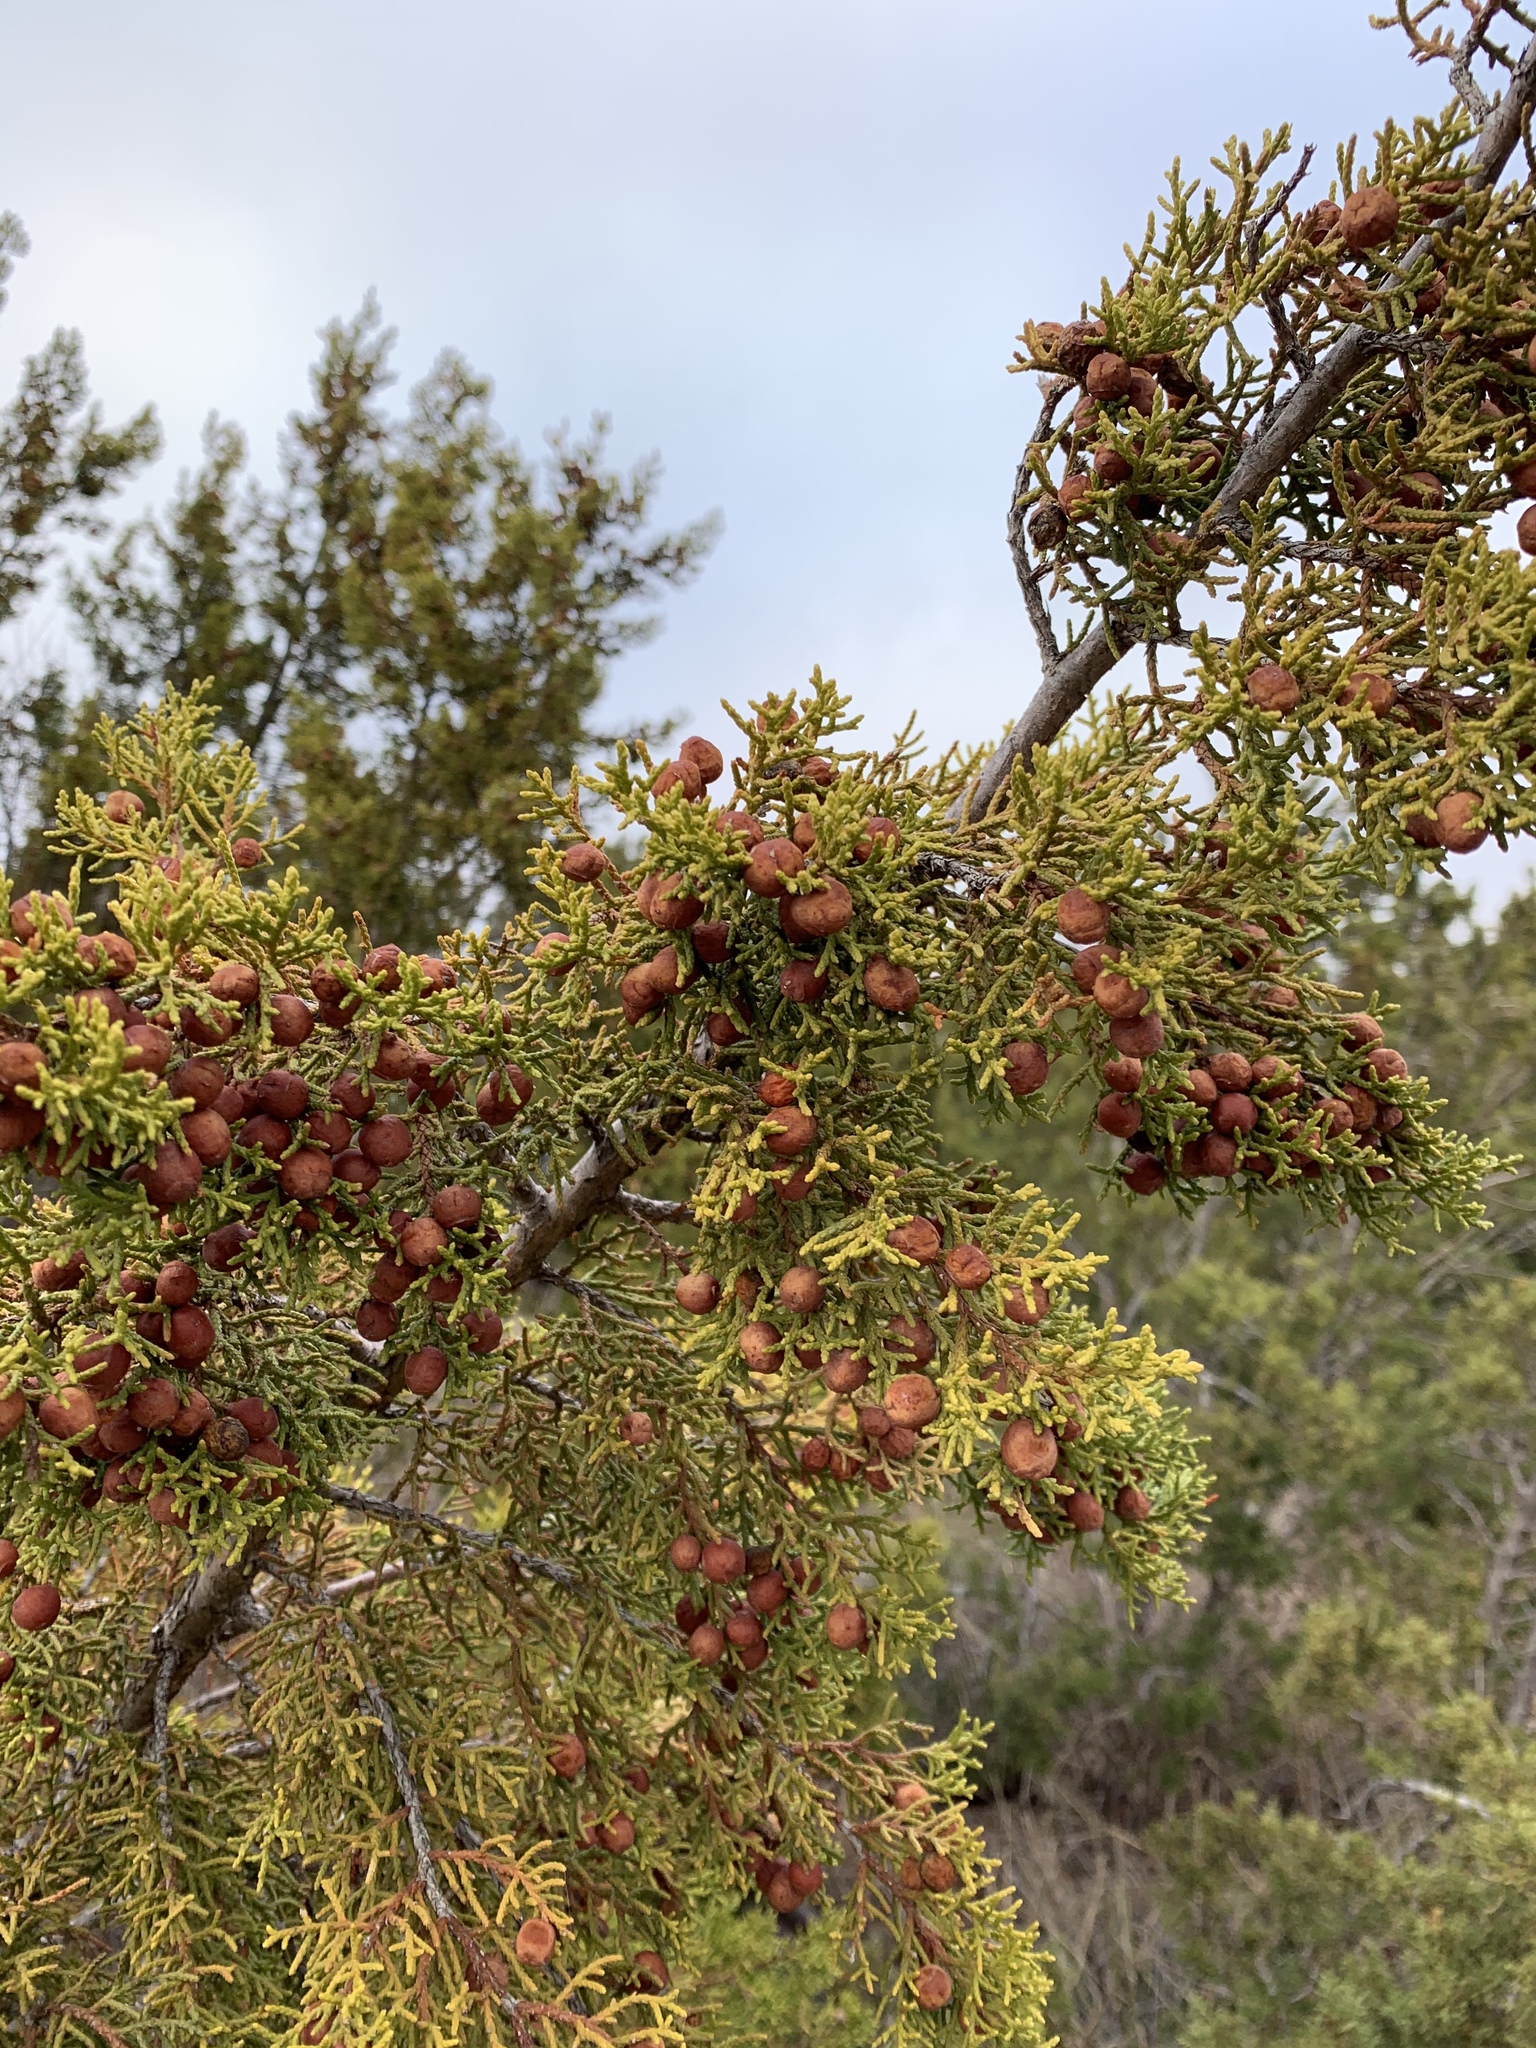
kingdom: Plantae
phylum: Tracheophyta
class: Pinopsida
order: Pinales
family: Cupressaceae
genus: Juniperus
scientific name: Juniperus pinchotii
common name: Pinchot juniper
